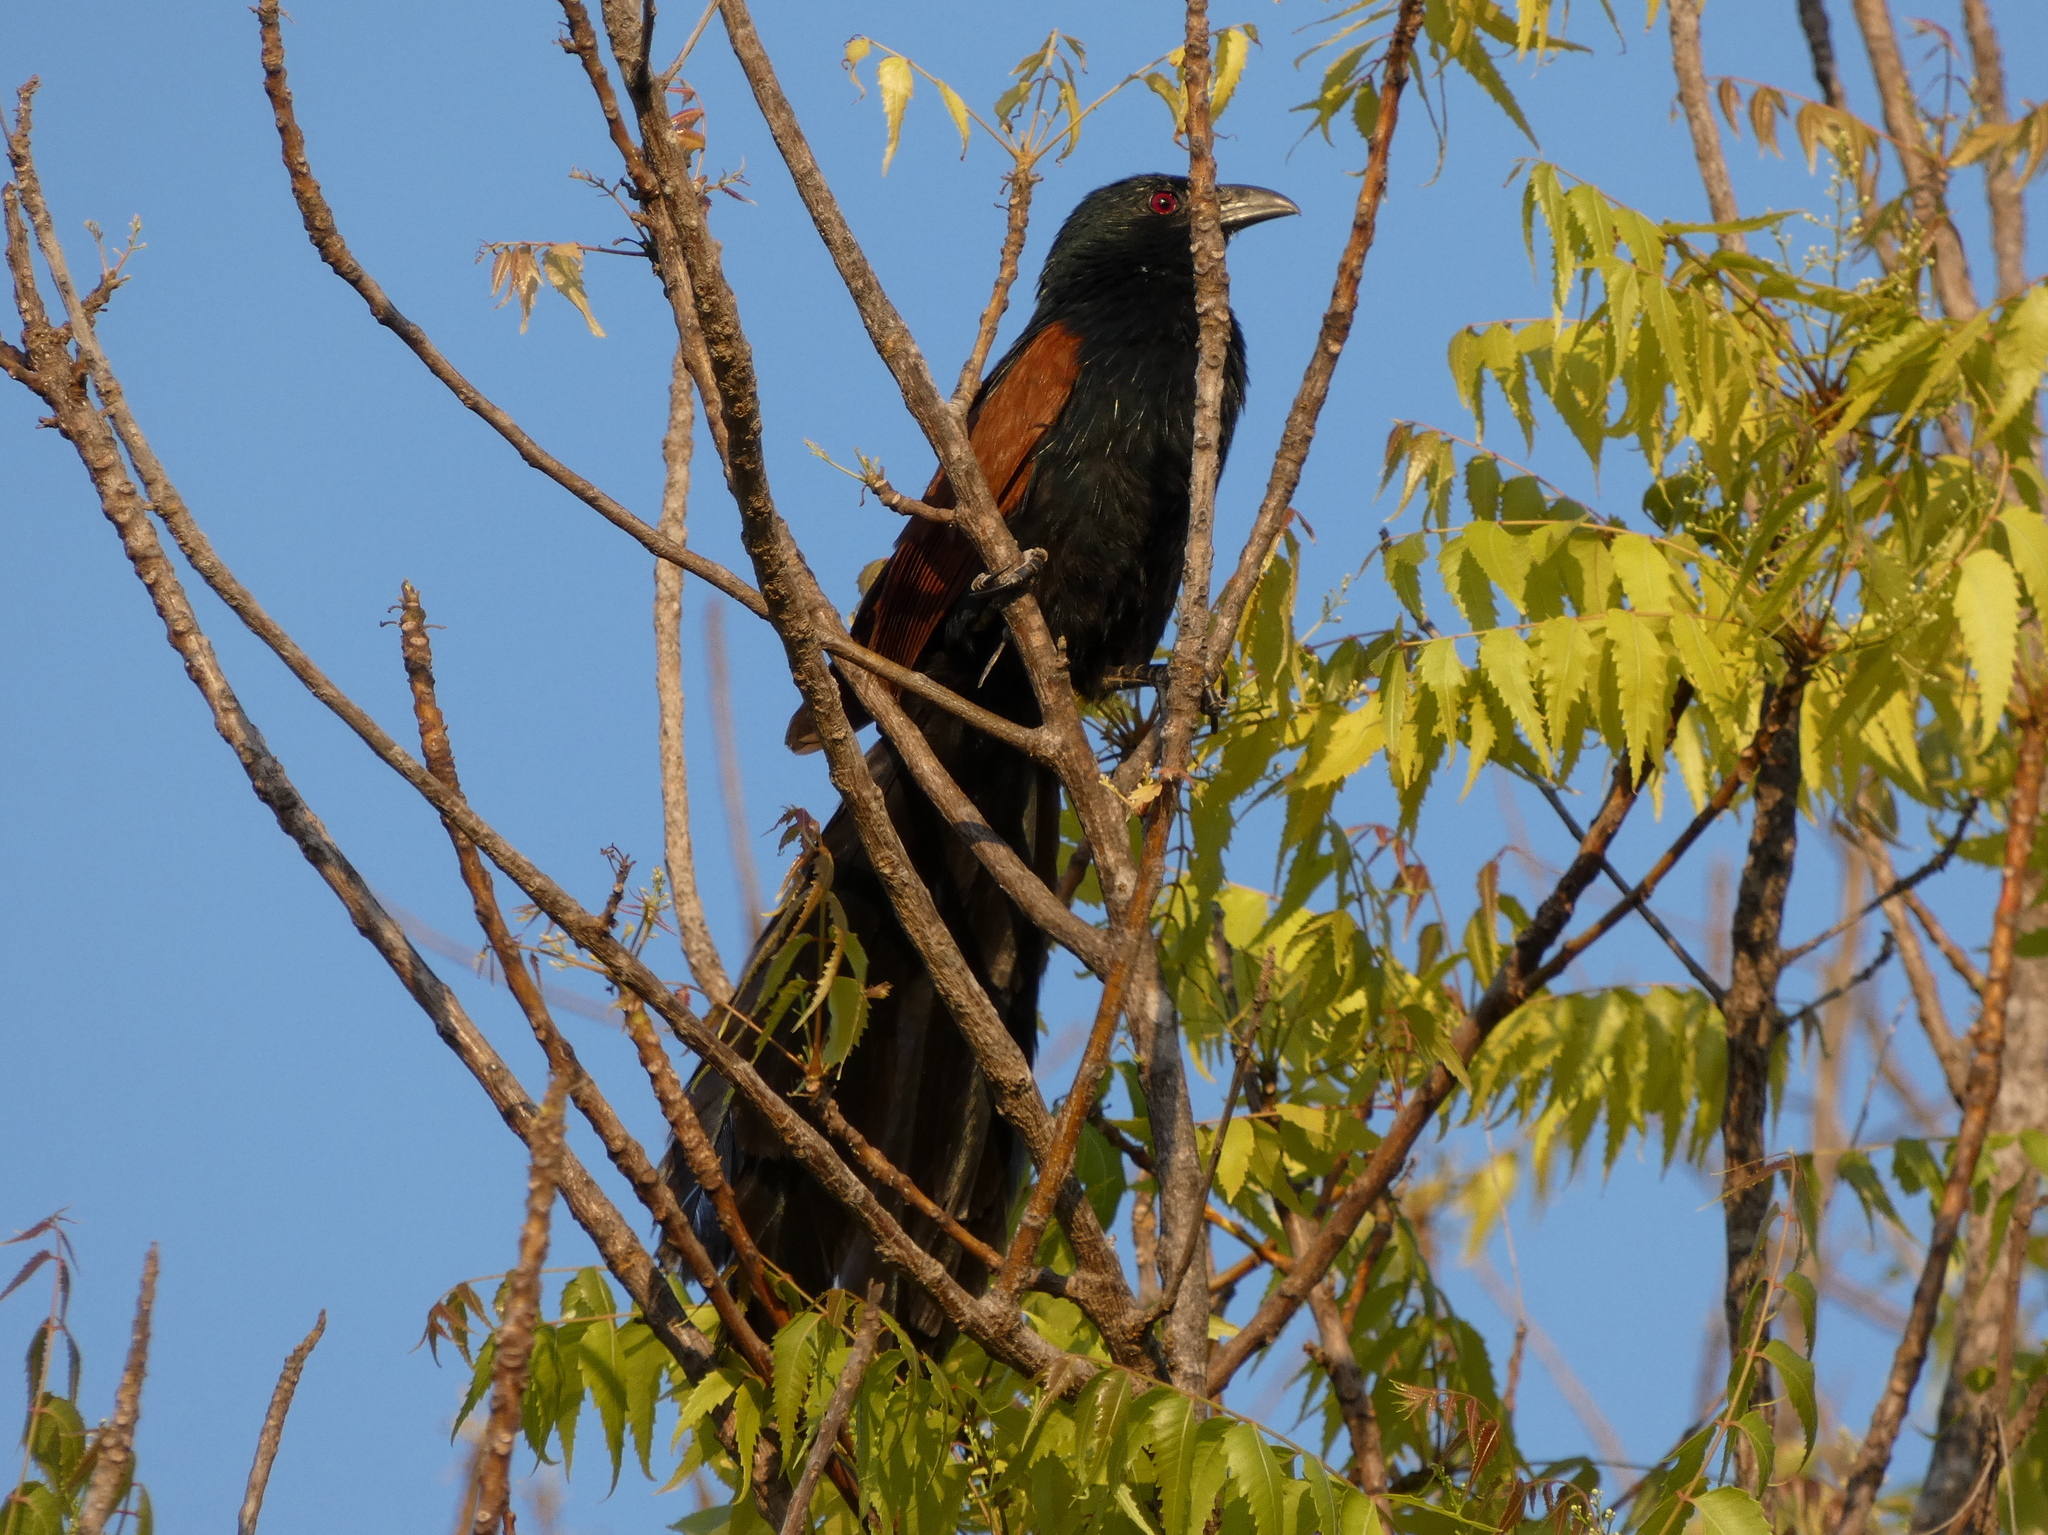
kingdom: Animalia
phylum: Chordata
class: Aves
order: Cuculiformes
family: Cuculidae
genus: Centropus
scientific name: Centropus toulou
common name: Malagasy coucal
